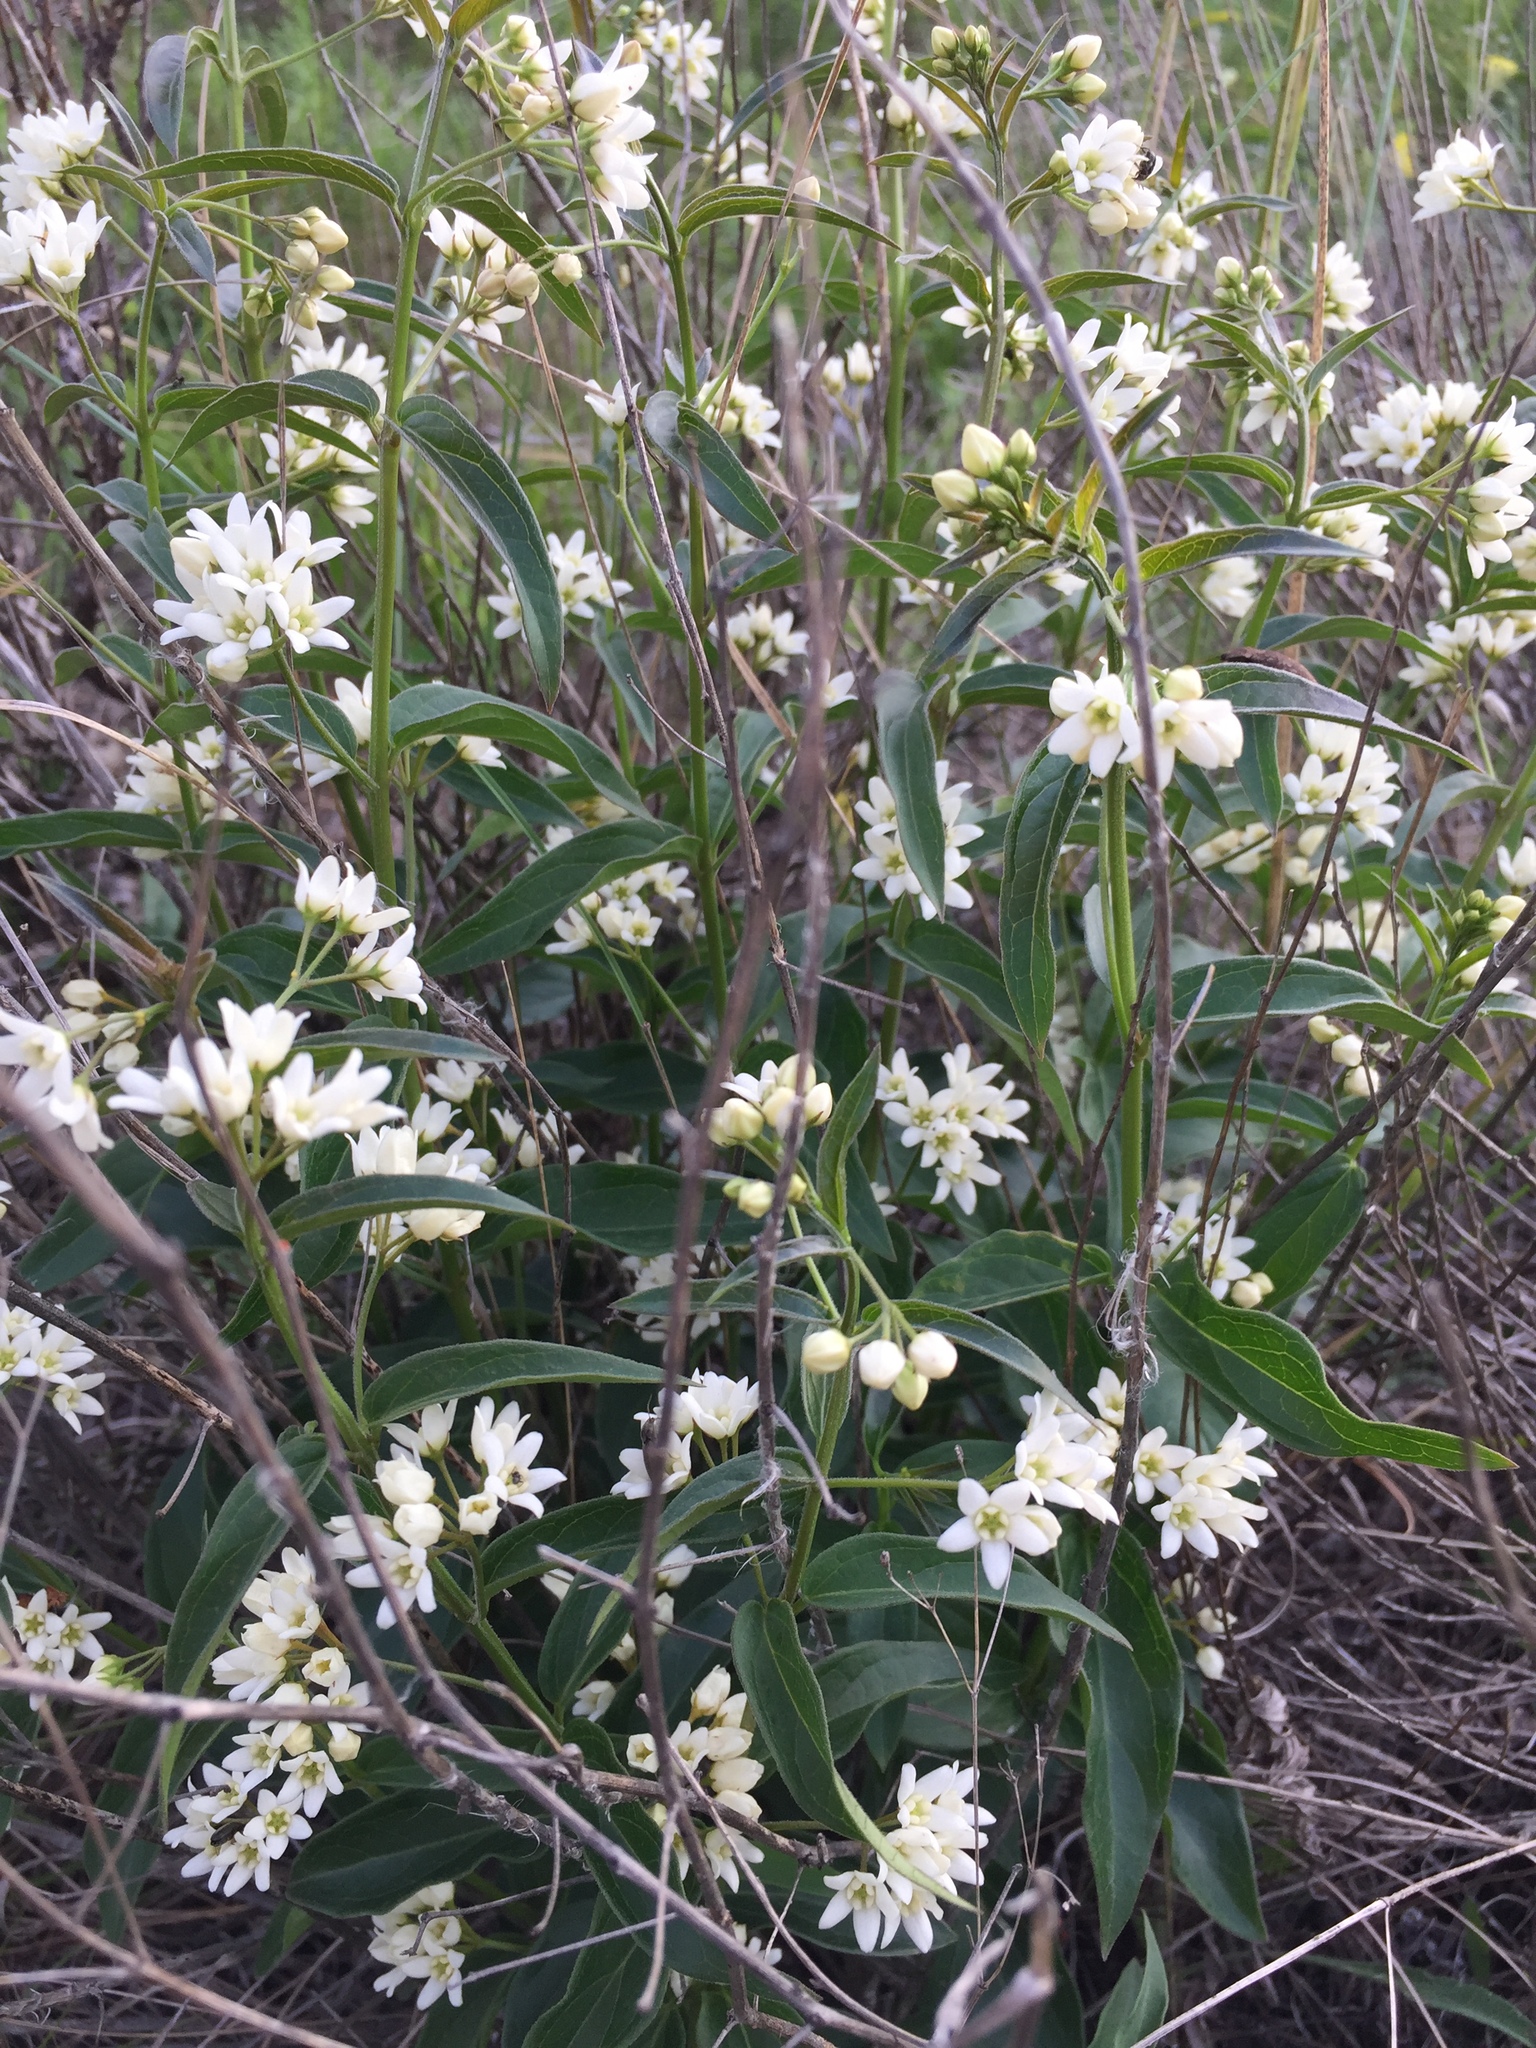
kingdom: Plantae
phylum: Tracheophyta
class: Magnoliopsida
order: Gentianales
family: Apocynaceae
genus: Vincetoxicum
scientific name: Vincetoxicum hirundinaria
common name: White swallowwort
